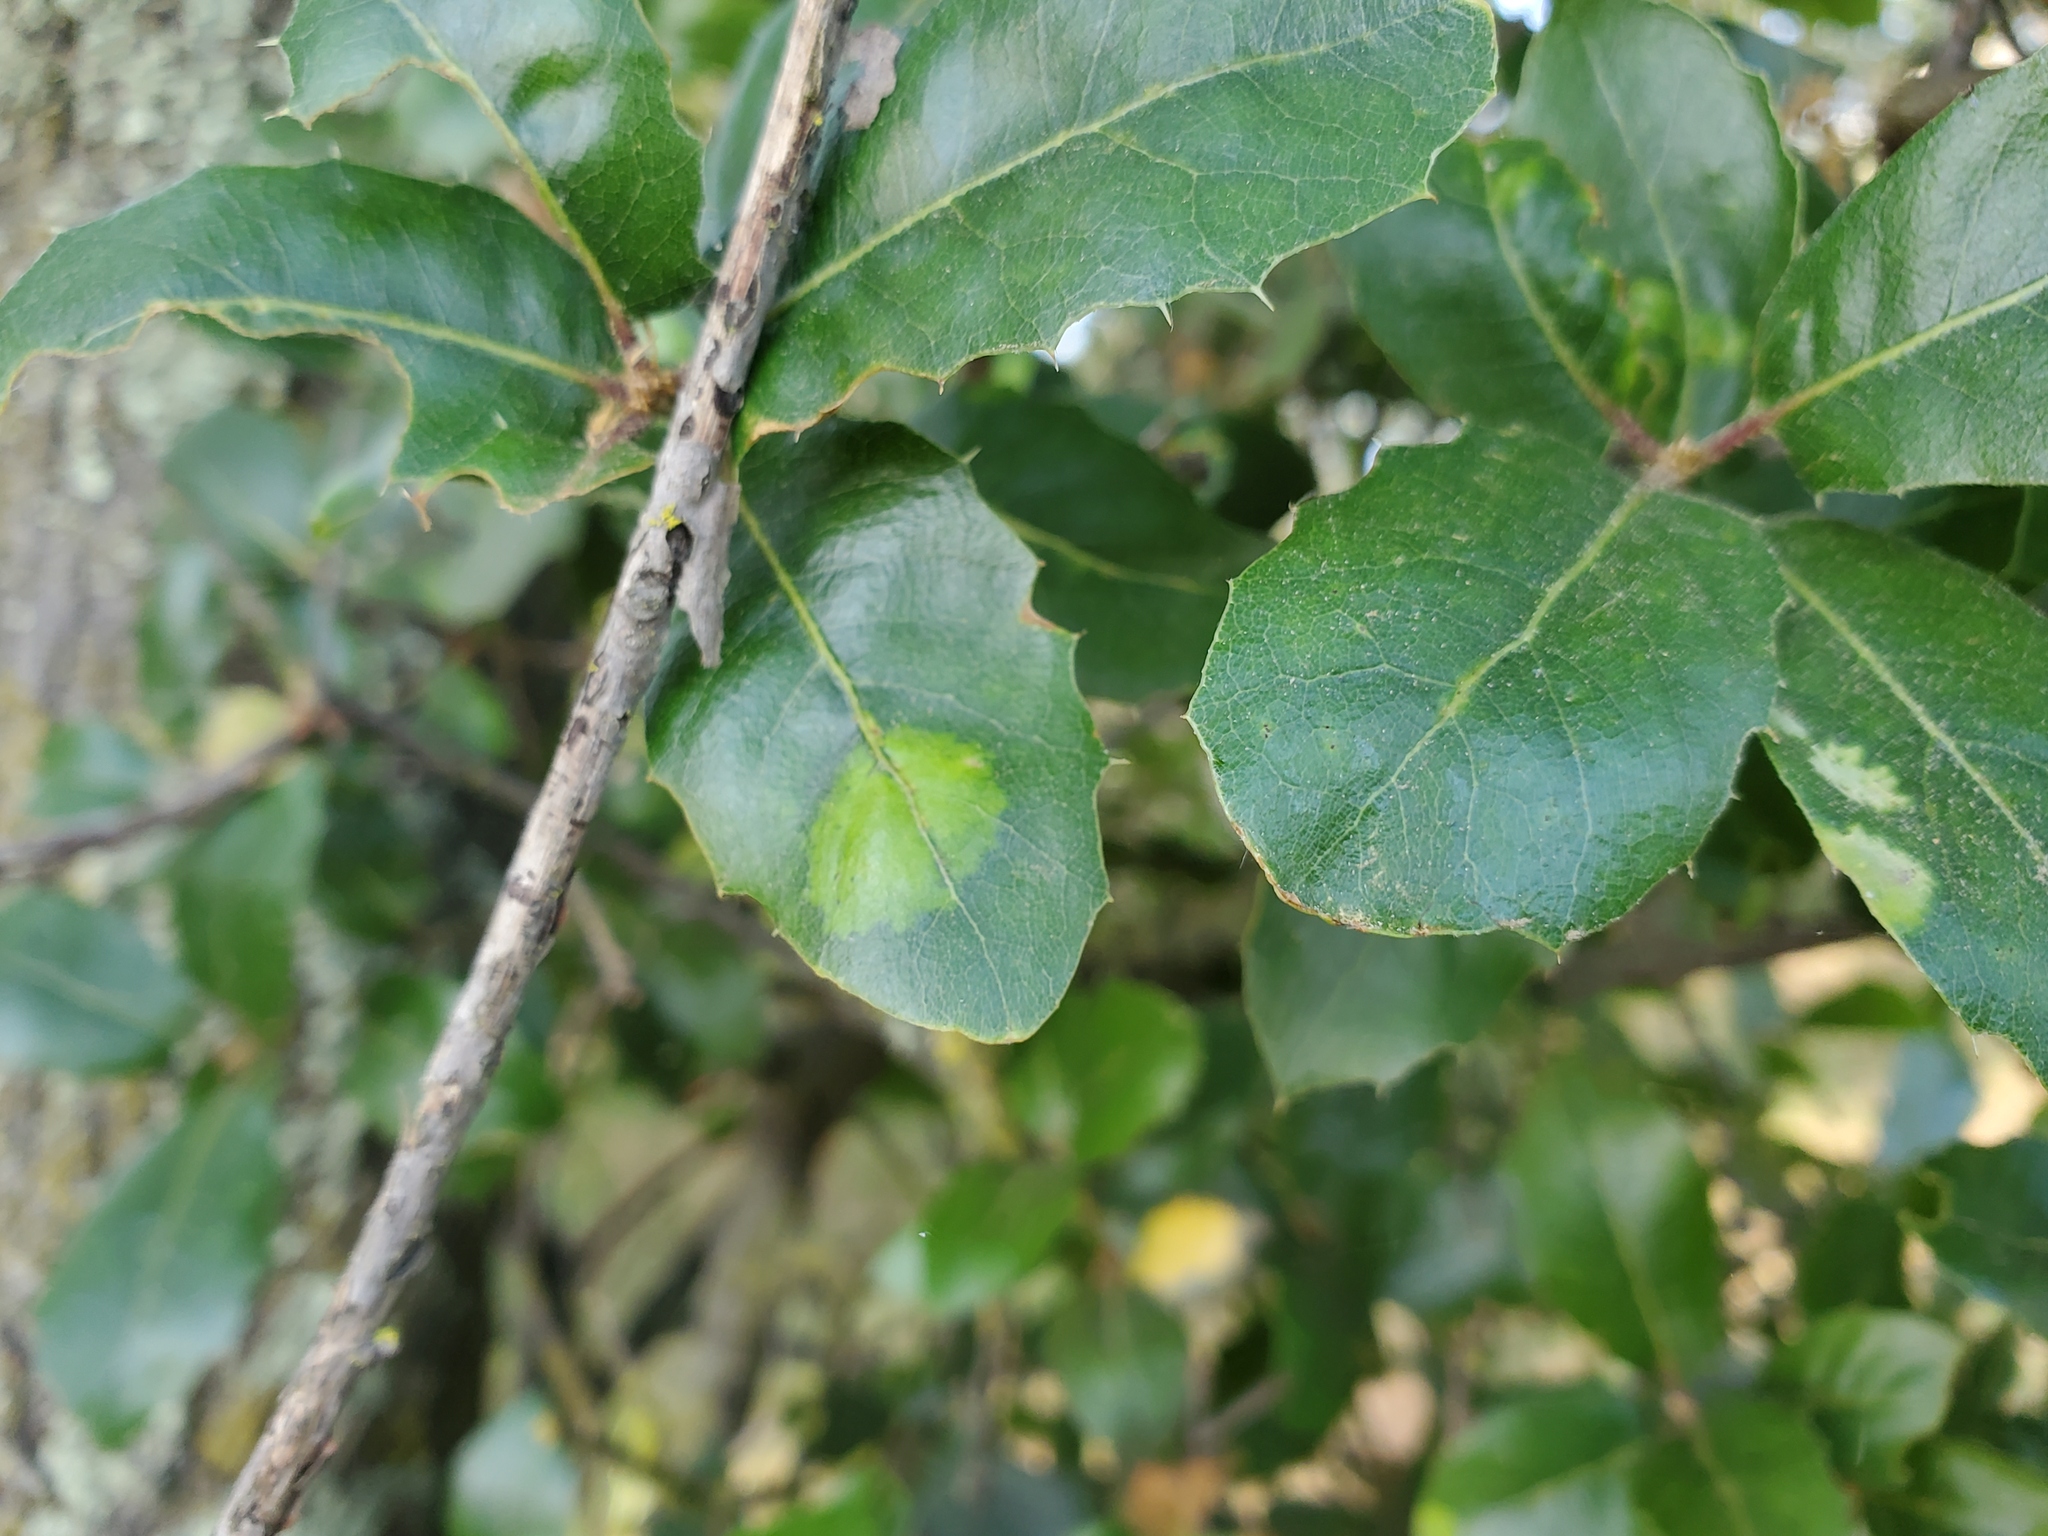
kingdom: Animalia
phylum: Arthropoda
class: Arachnida
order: Trombidiformes
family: Eriophyidae
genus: Aceria
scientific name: Aceria
